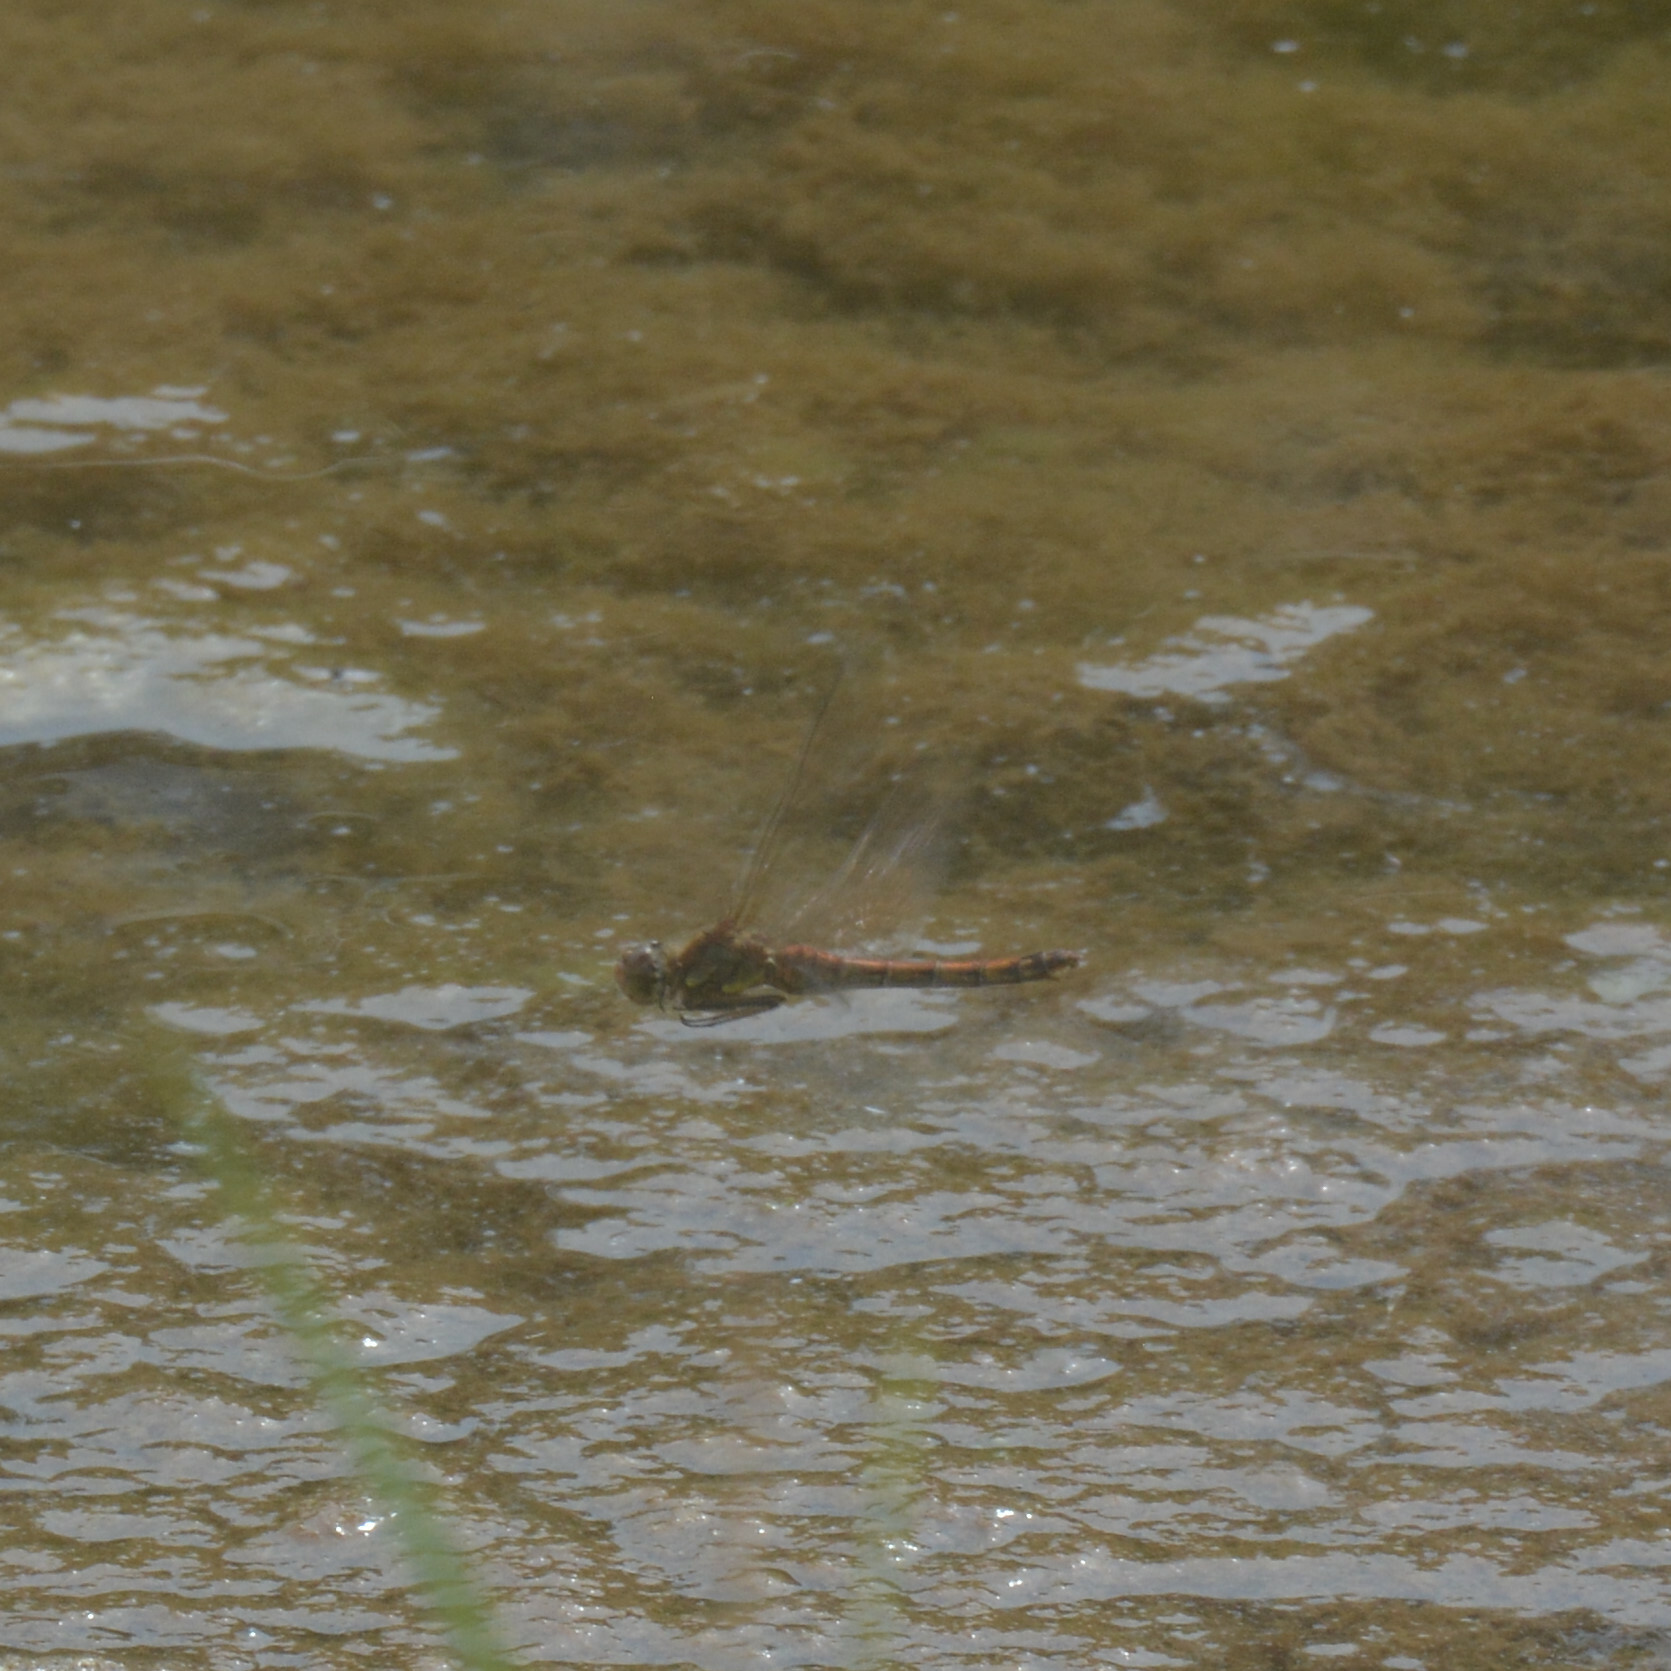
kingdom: Animalia
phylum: Arthropoda
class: Insecta
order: Odonata
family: Libellulidae
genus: Sympetrum
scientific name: Sympetrum striolatum
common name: Common darter
